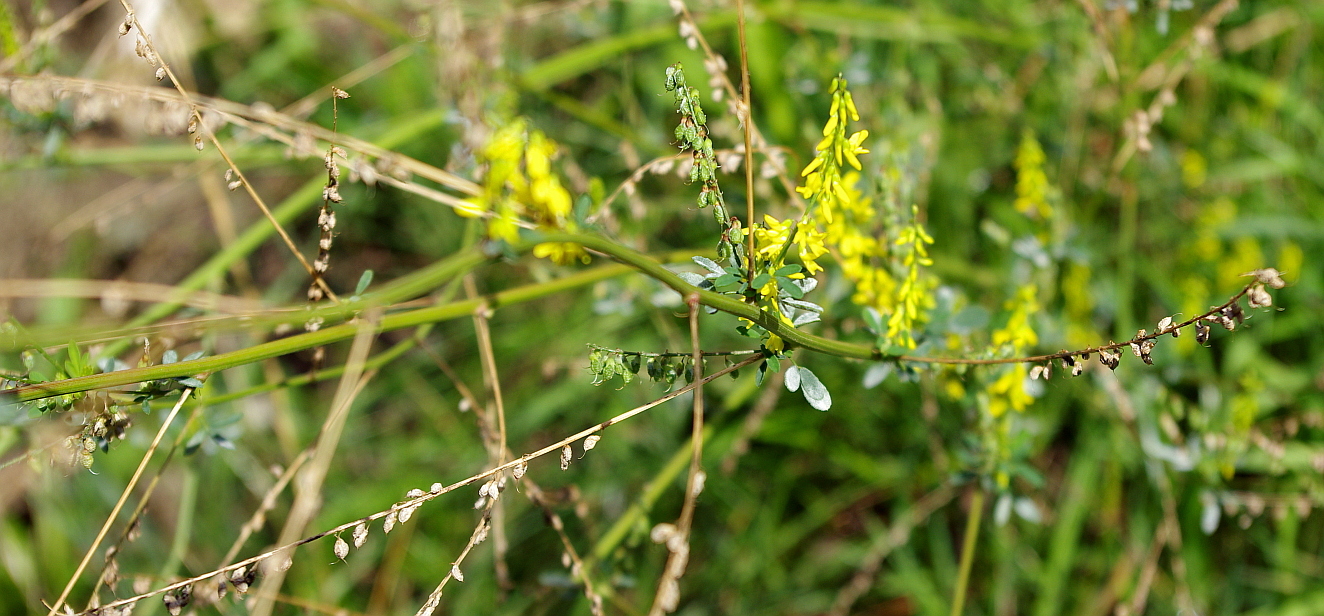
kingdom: Plantae
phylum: Tracheophyta
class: Magnoliopsida
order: Fabales
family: Fabaceae
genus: Melilotus
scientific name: Melilotus officinalis
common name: Sweetclover
